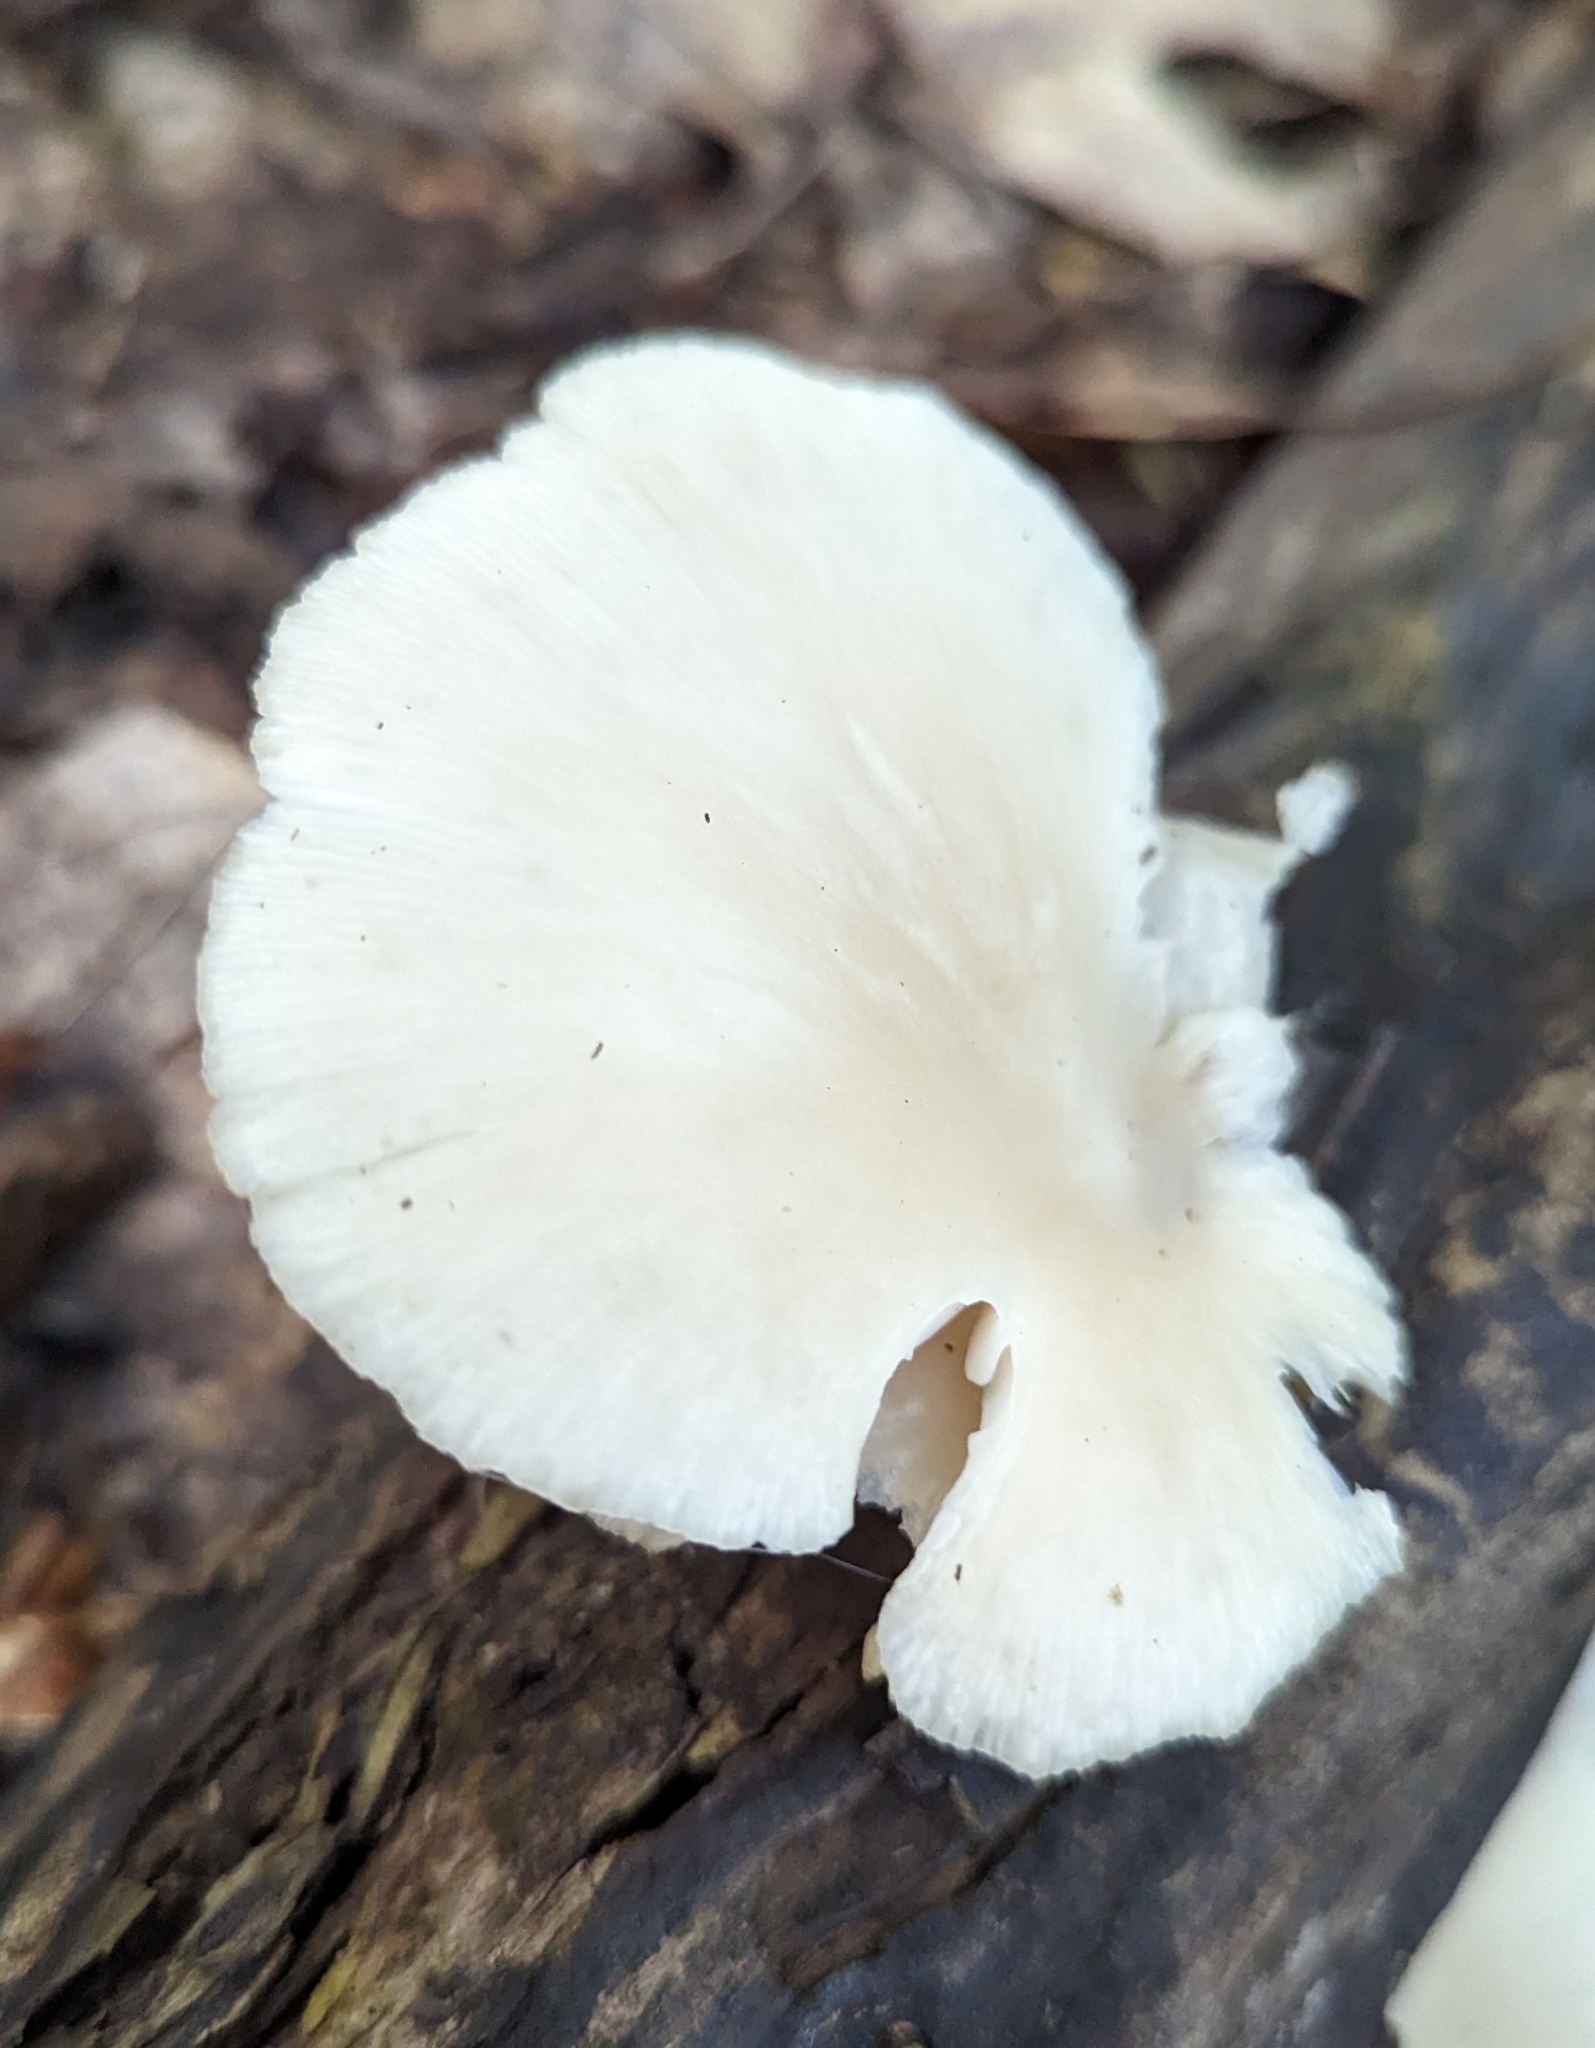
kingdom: Fungi
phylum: Basidiomycota
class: Agaricomycetes
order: Agaricales
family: Pleurotaceae
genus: Pleurotus
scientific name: Pleurotus pulmonarius
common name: Pale oyster
